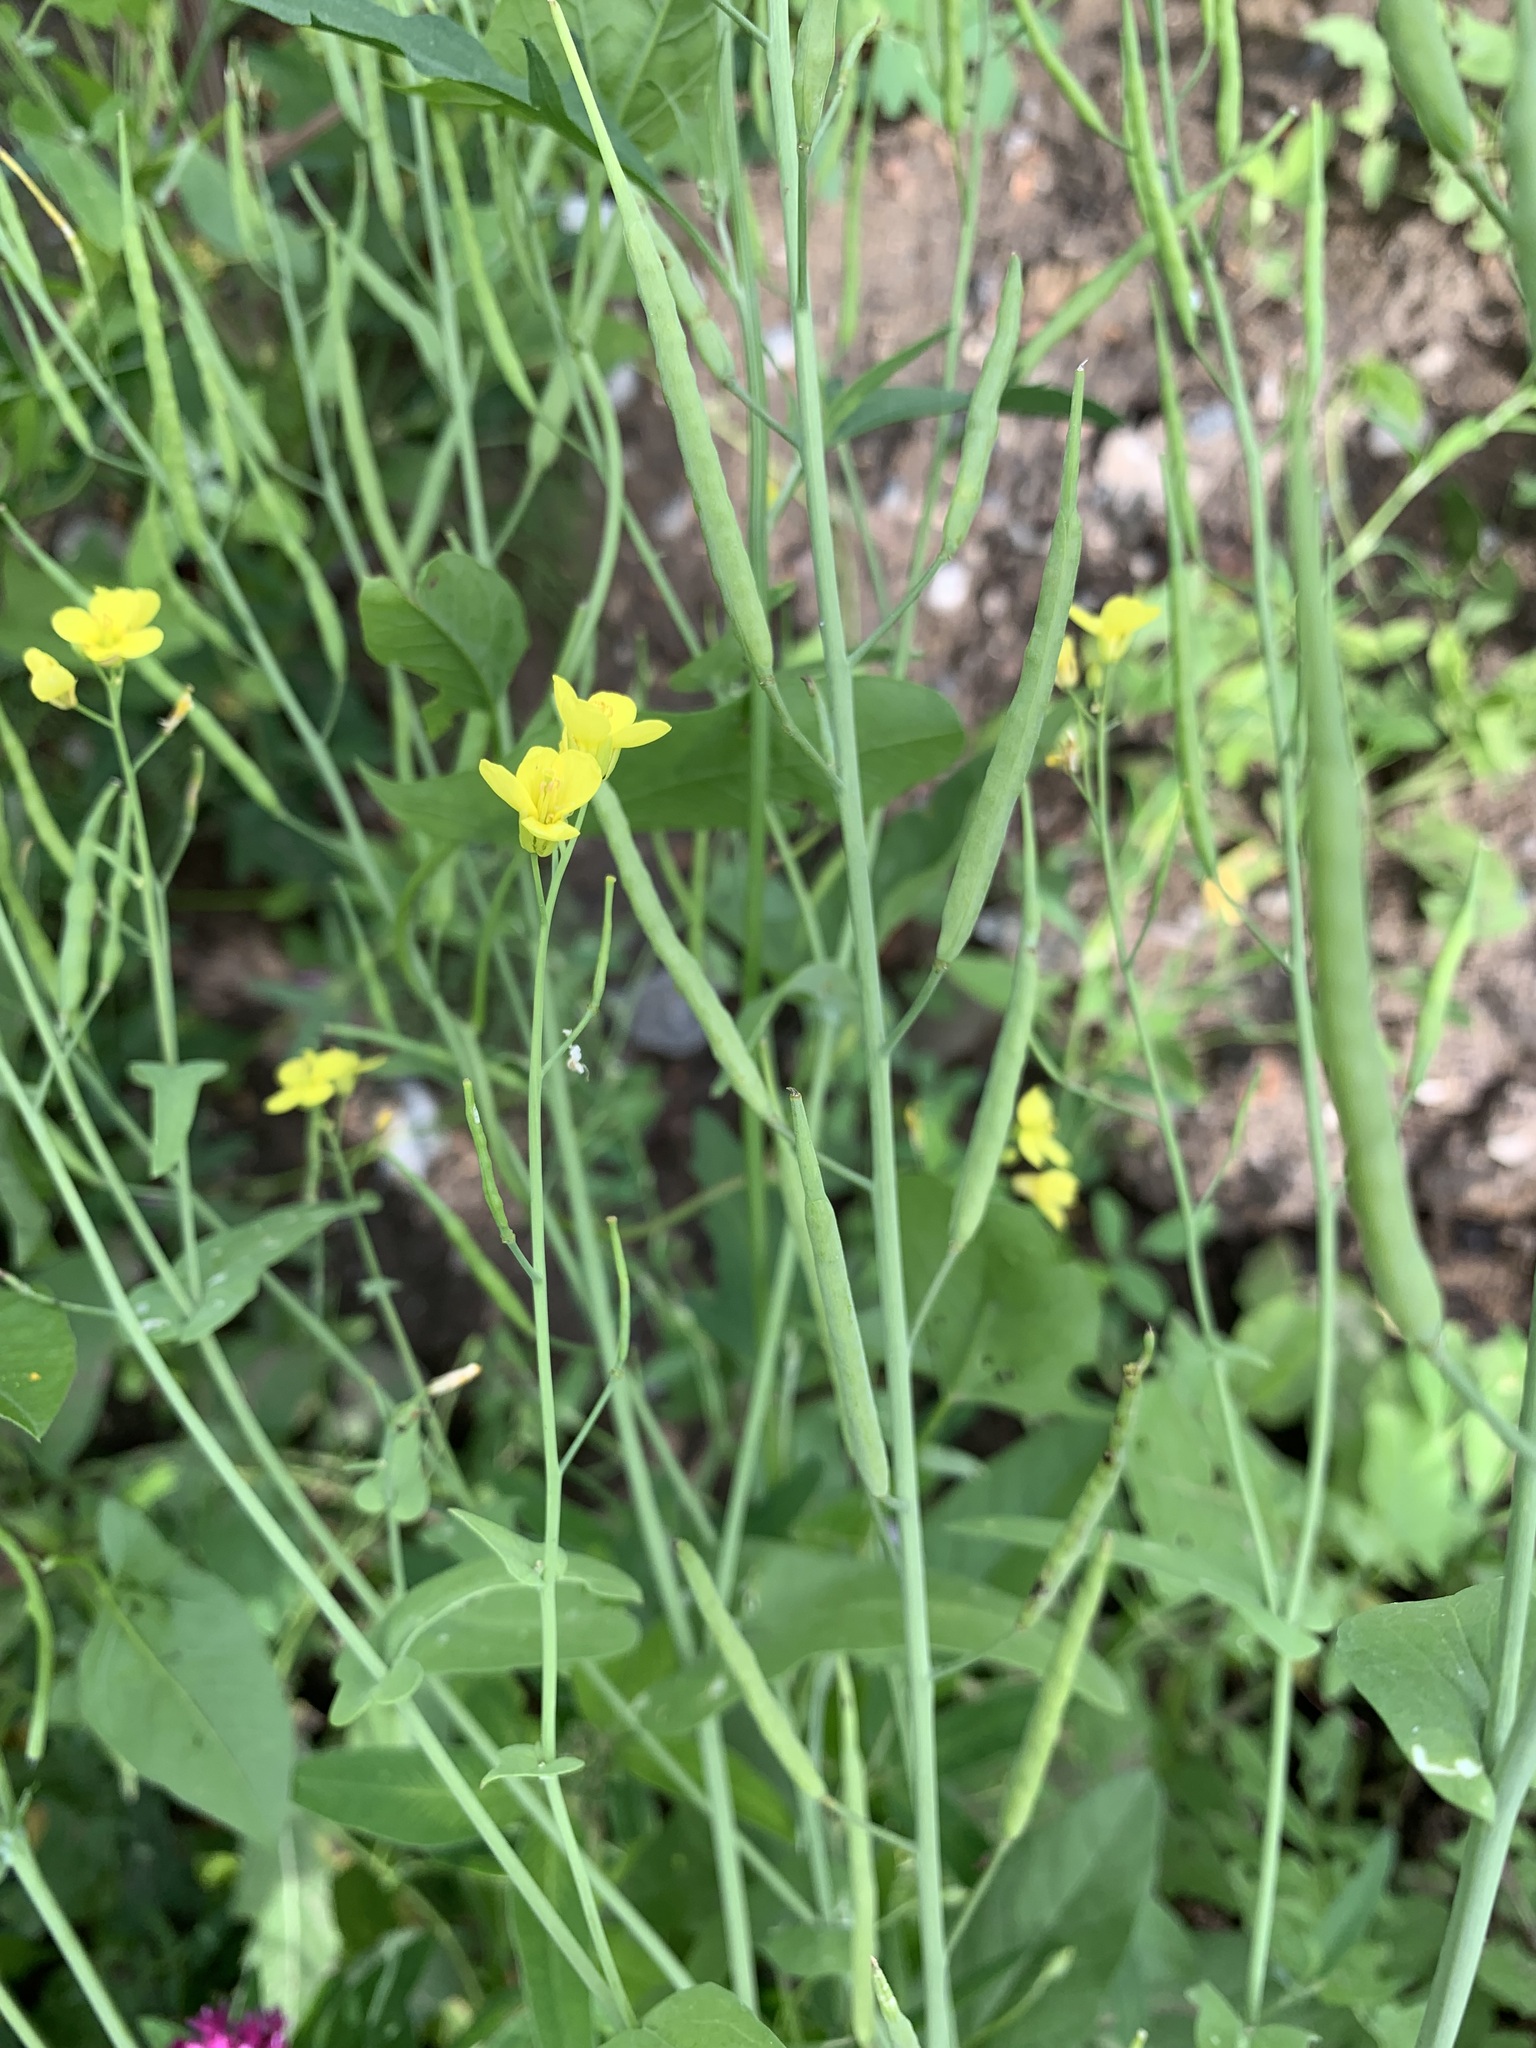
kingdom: Plantae
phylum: Tracheophyta
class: Magnoliopsida
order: Brassicales
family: Brassicaceae
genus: Brassica
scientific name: Brassica napus
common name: Rape
